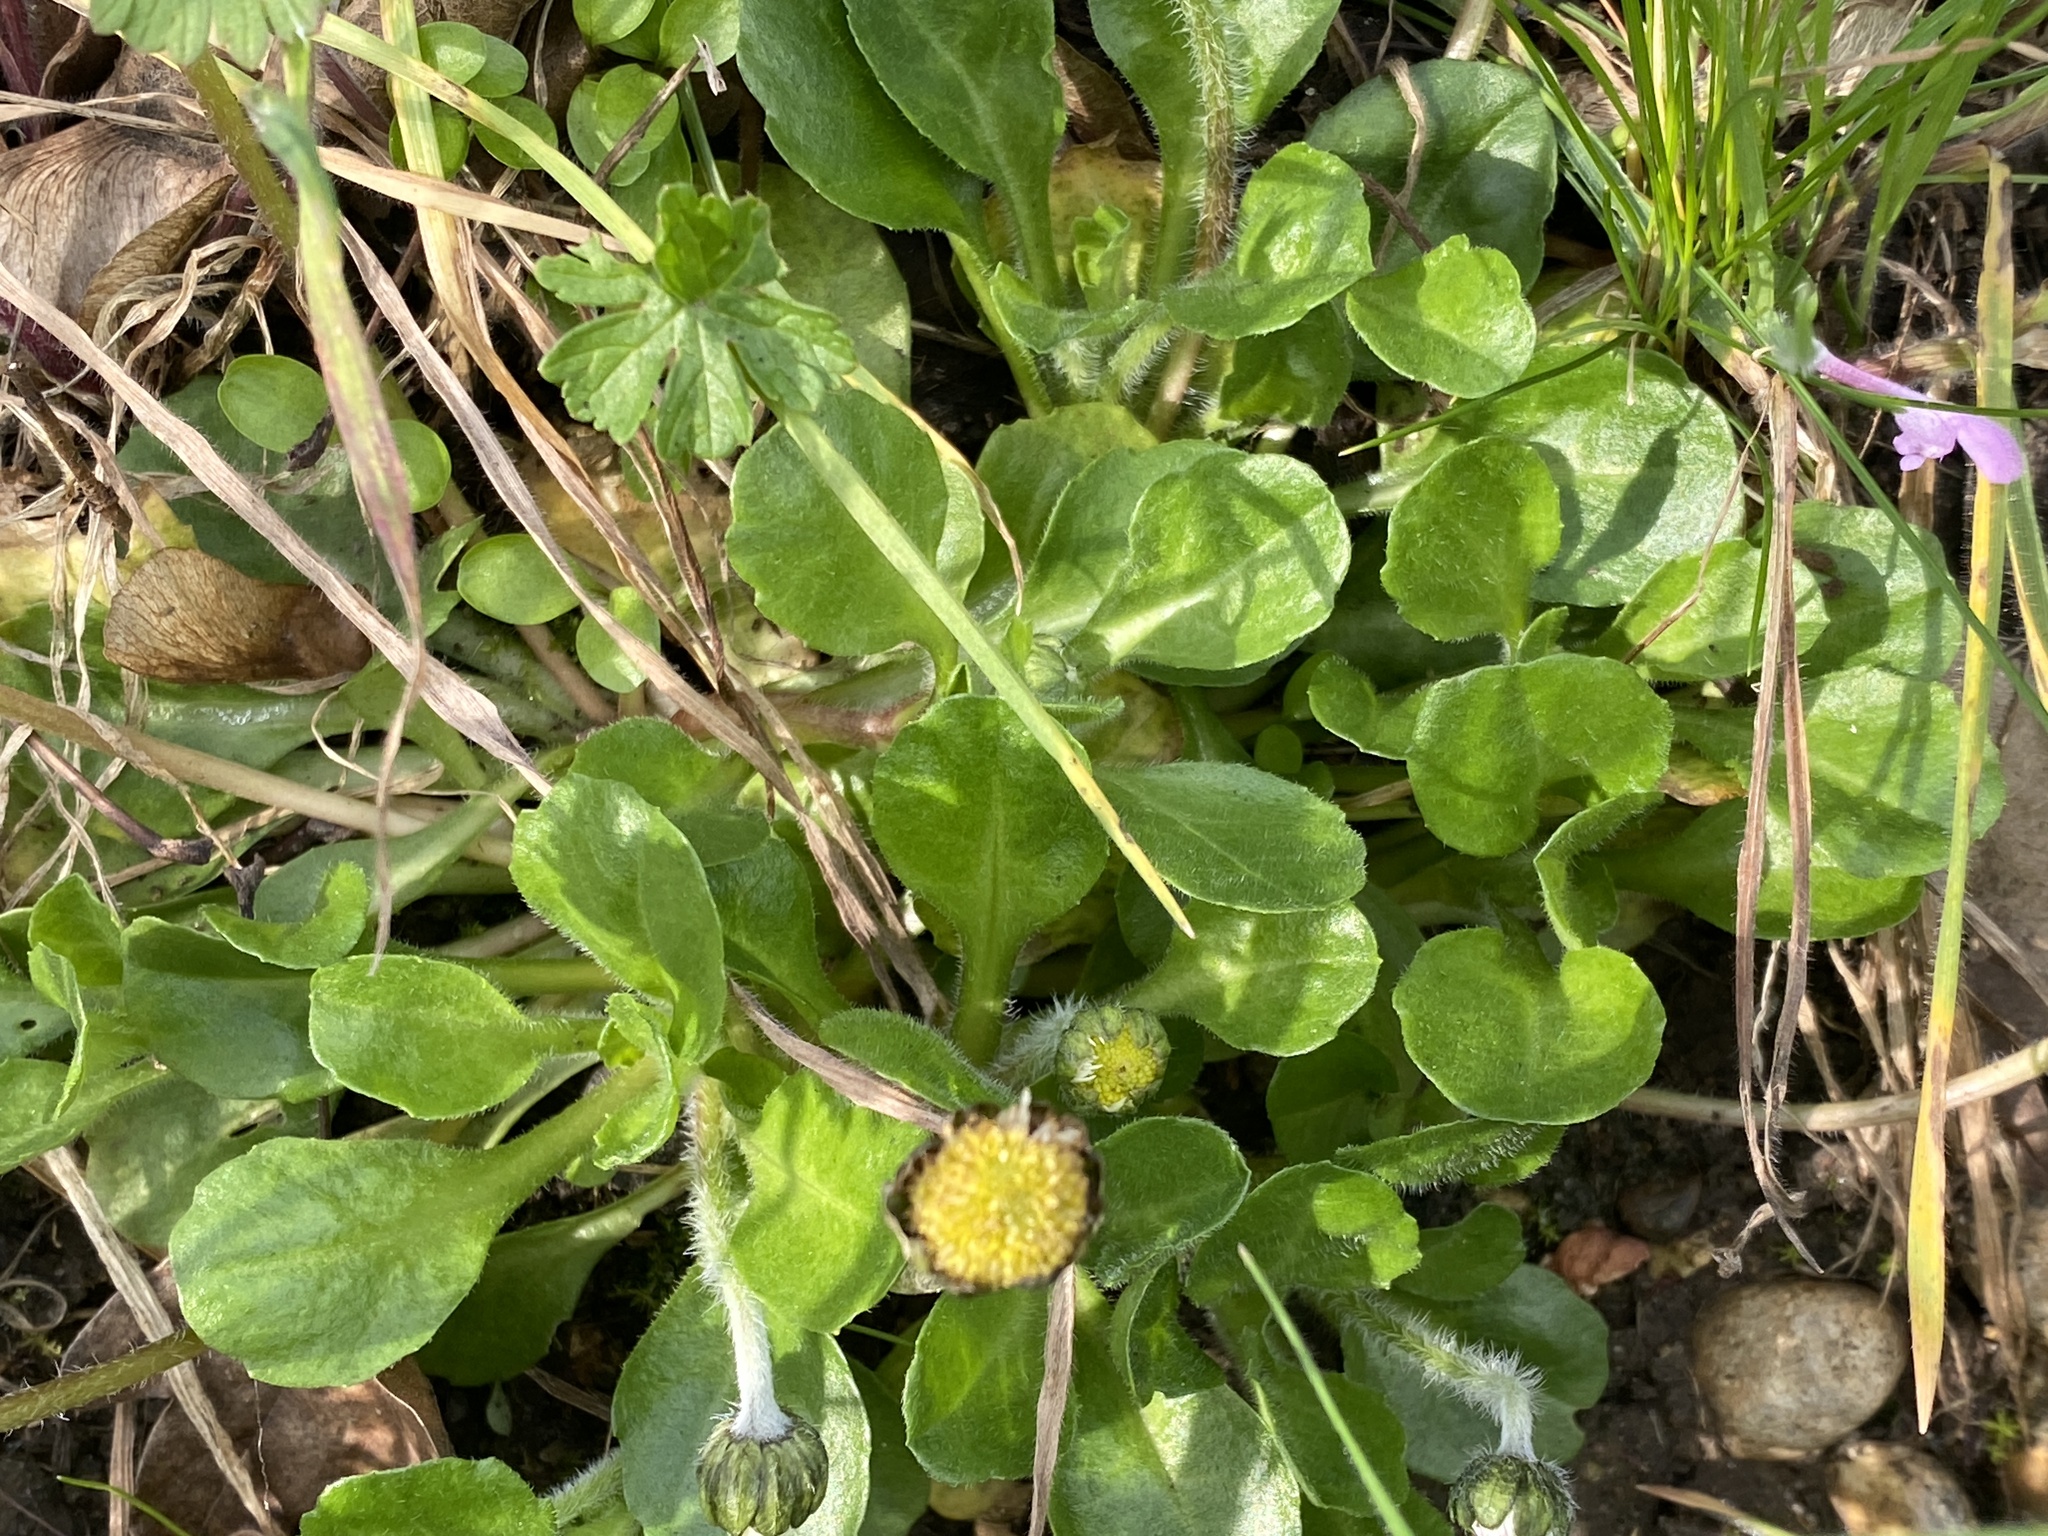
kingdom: Plantae
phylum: Tracheophyta
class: Magnoliopsida
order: Asterales
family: Asteraceae
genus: Bellis
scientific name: Bellis perennis
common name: Lawndaisy
